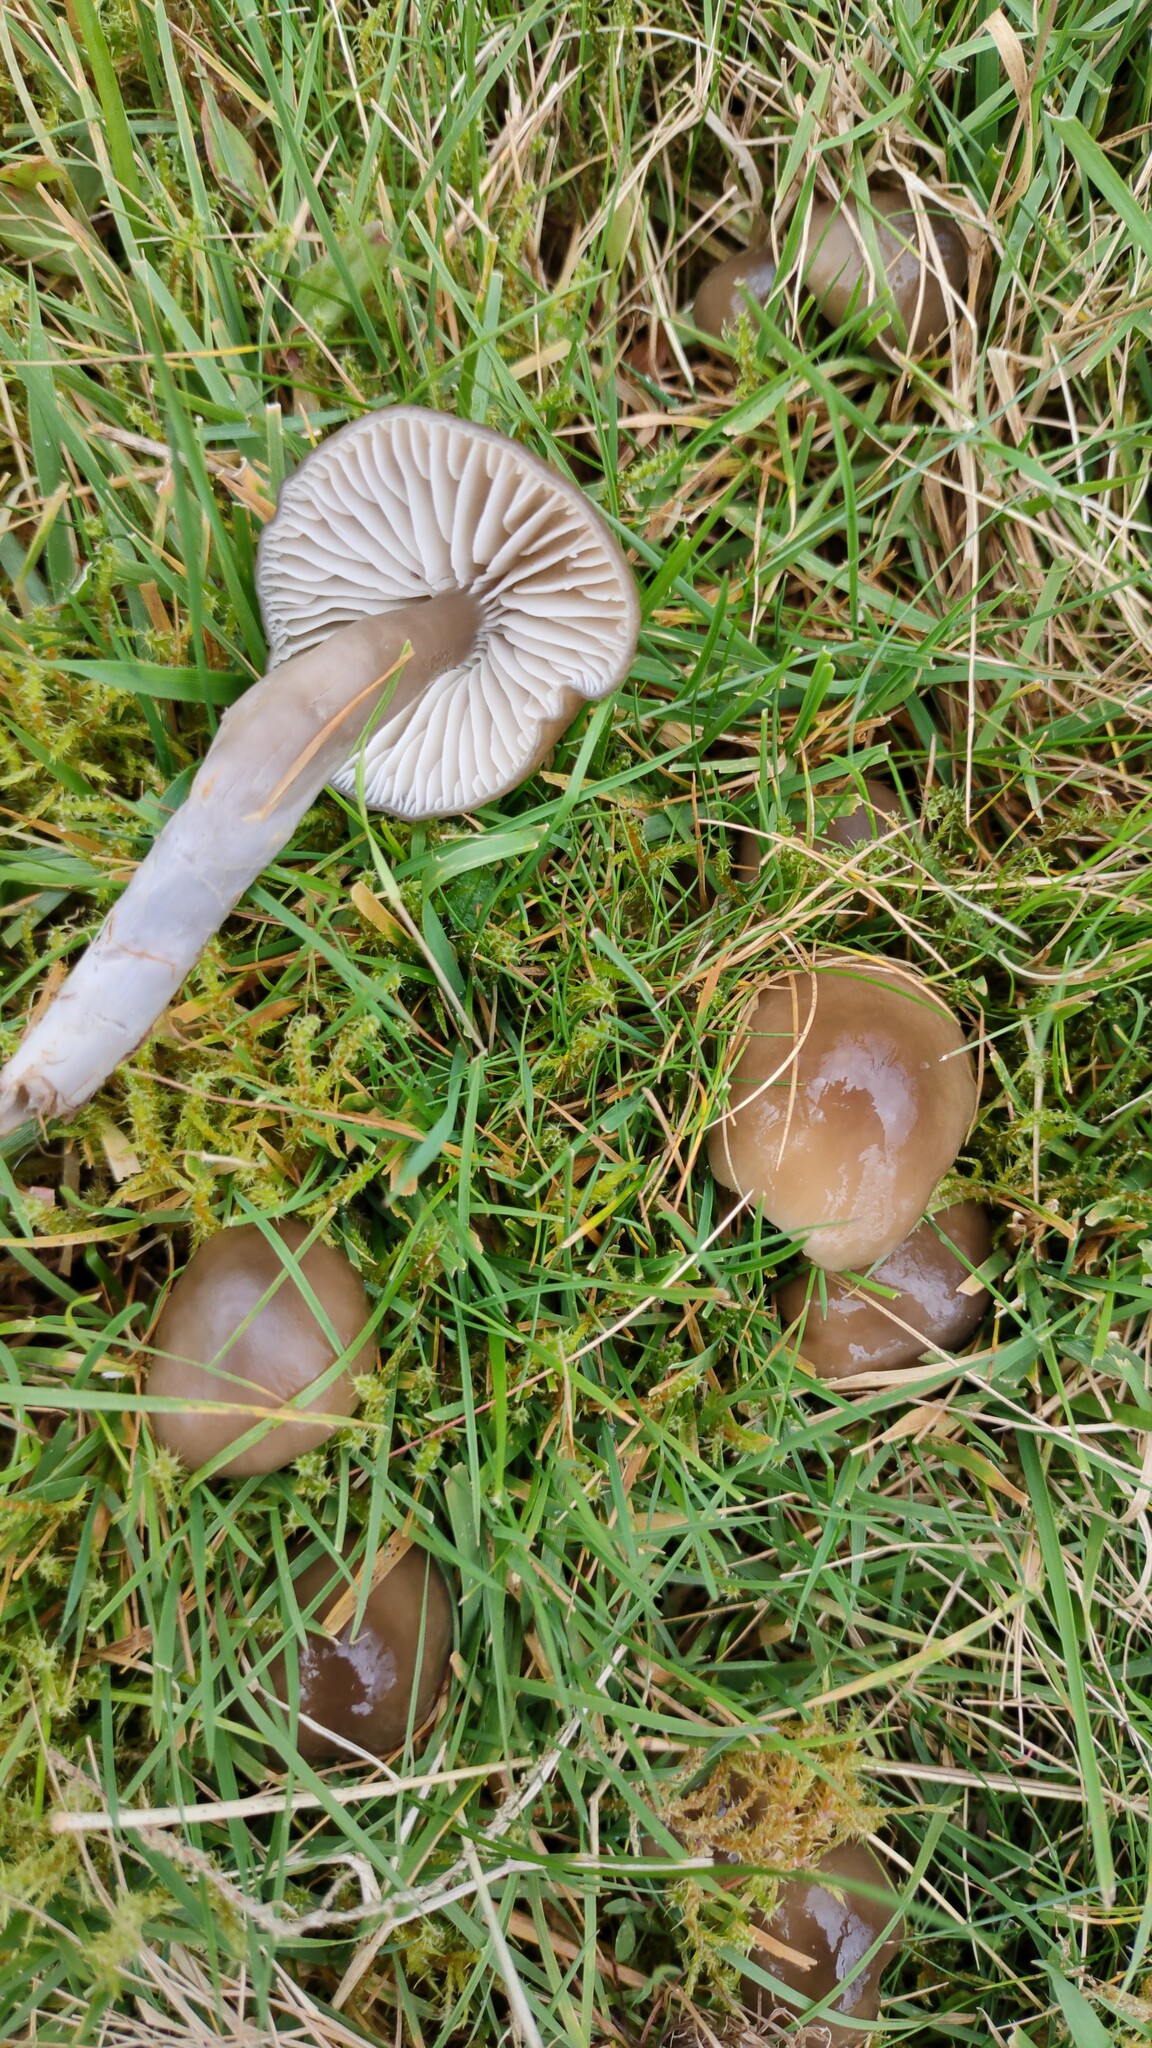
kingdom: Fungi
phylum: Basidiomycota
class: Agaricomycetes
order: Agaricales
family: Hygrophoraceae
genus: Gliophorus
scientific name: Gliophorus irrigatus
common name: Slimy waxcap
